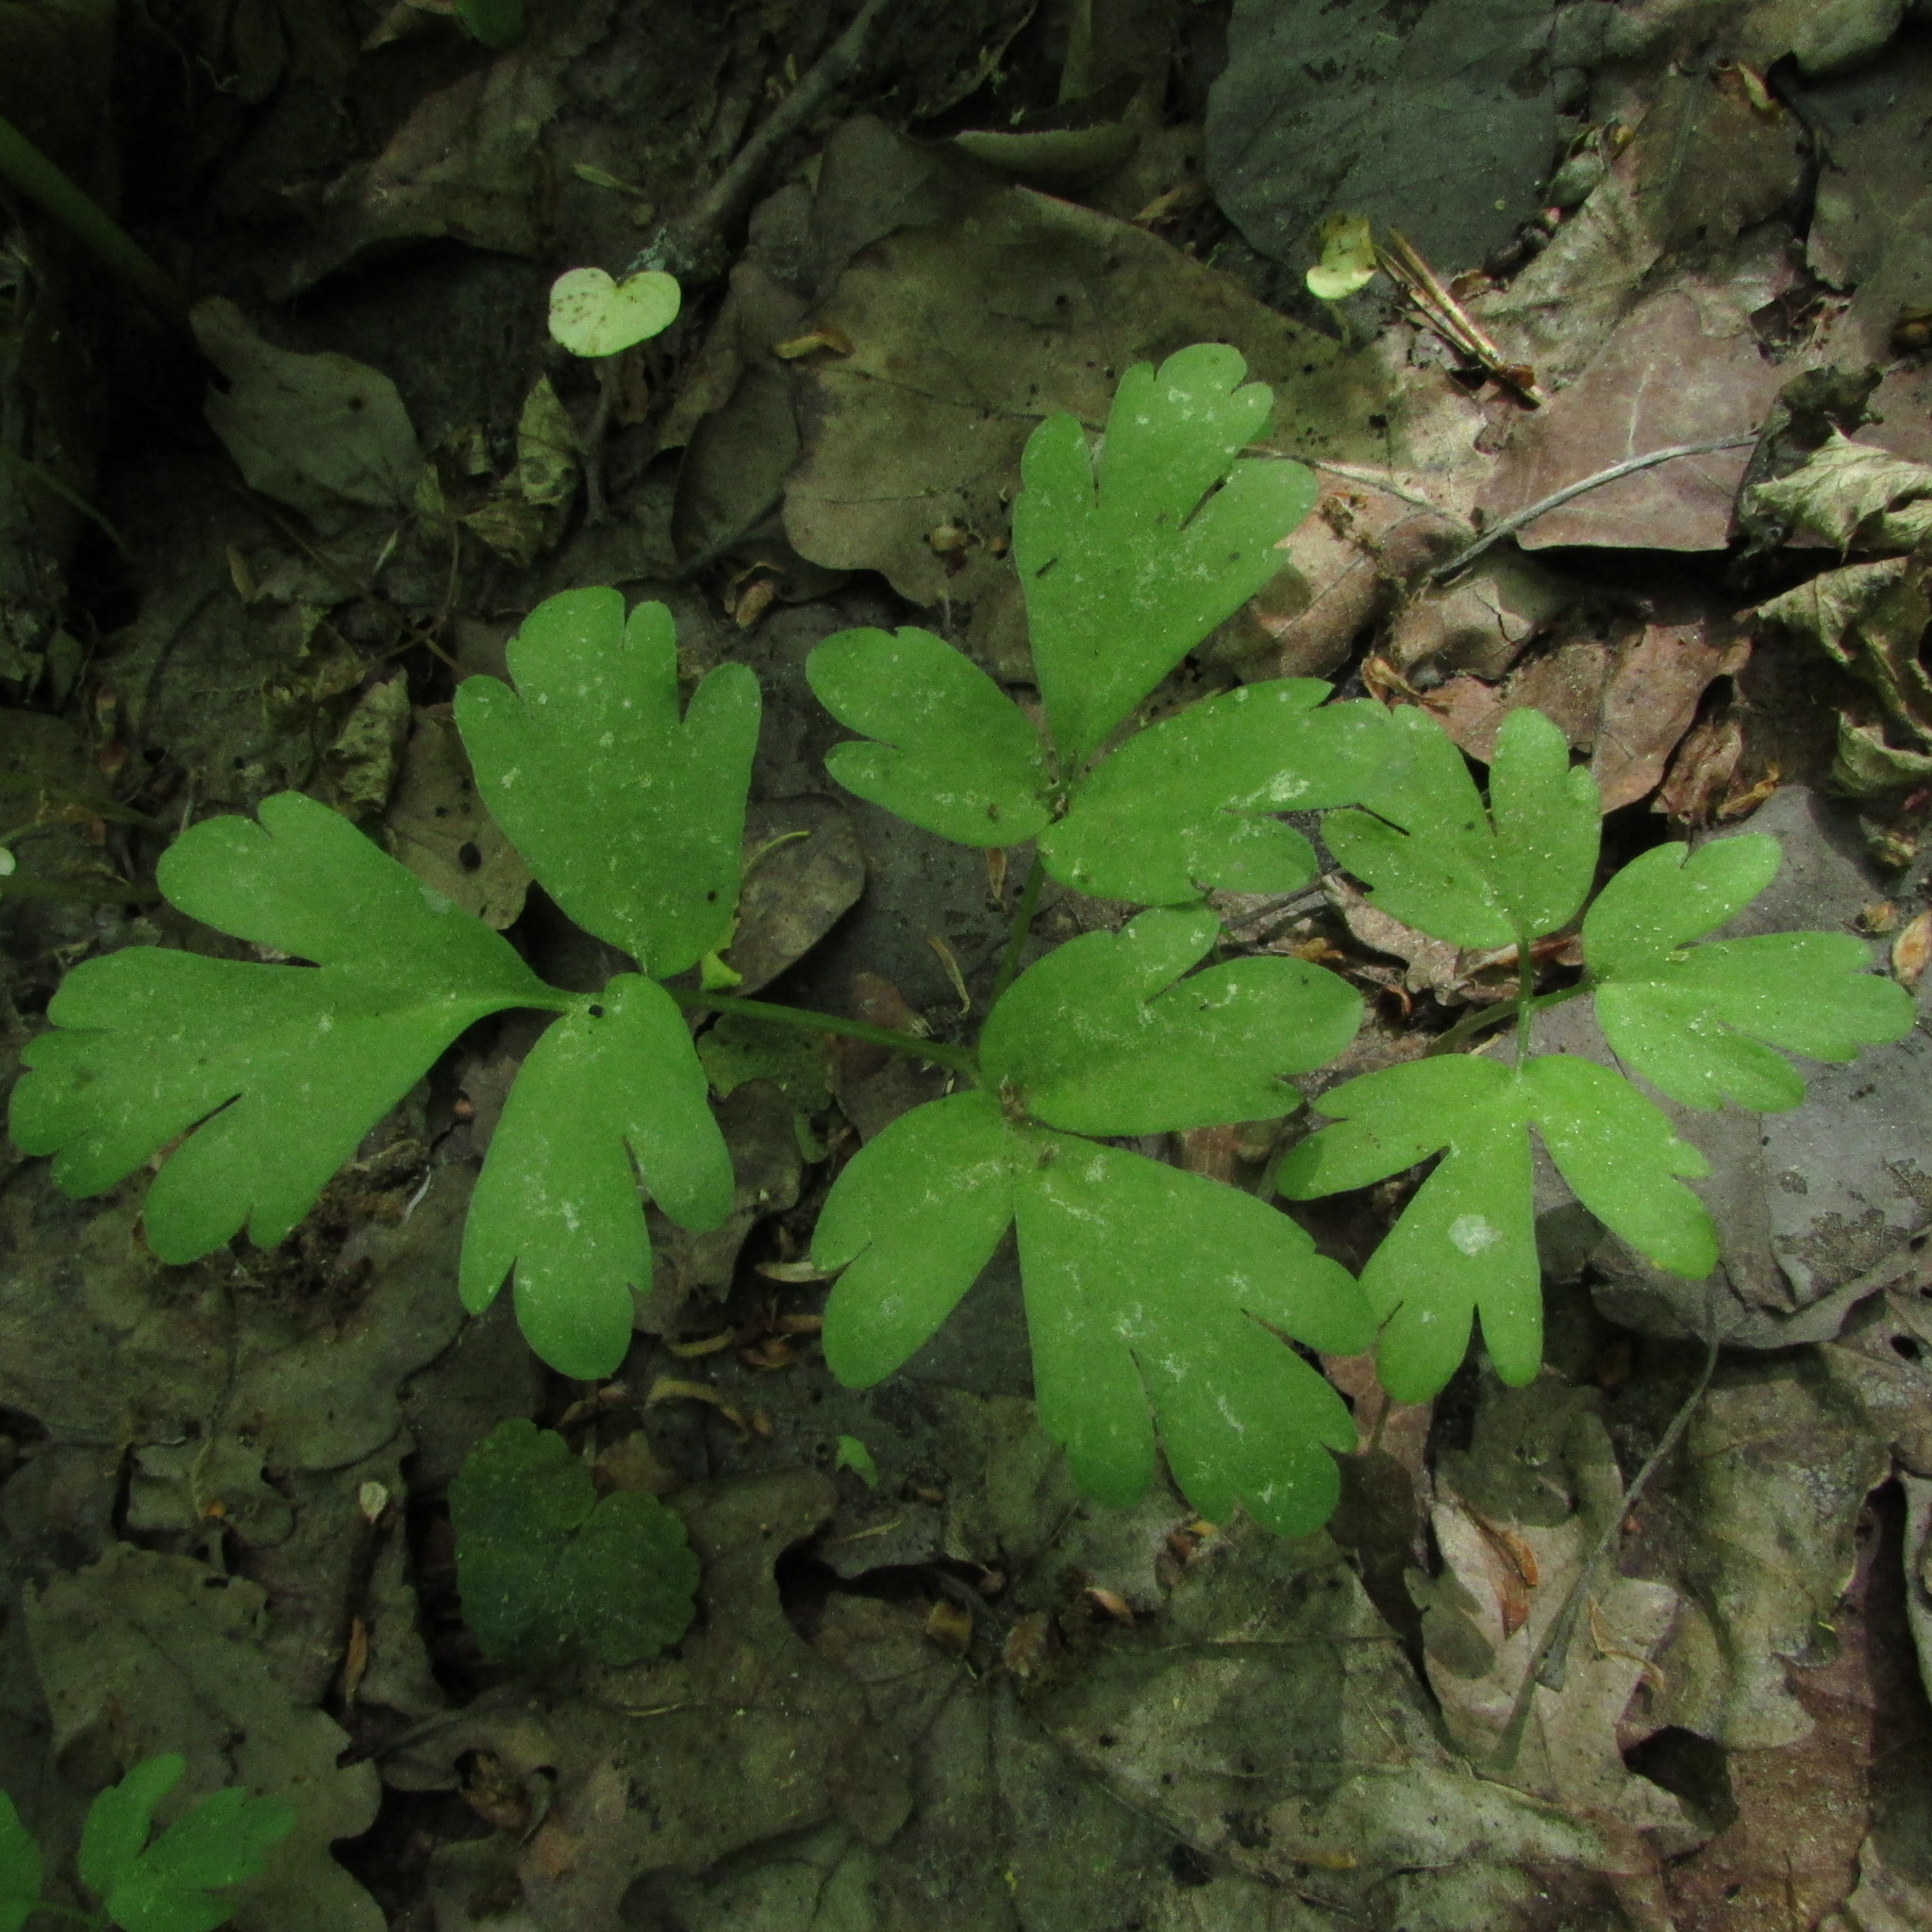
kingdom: Plantae
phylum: Tracheophyta
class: Magnoliopsida
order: Dipsacales
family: Viburnaceae
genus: Adoxa
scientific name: Adoxa moschatellina
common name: Moschatel
